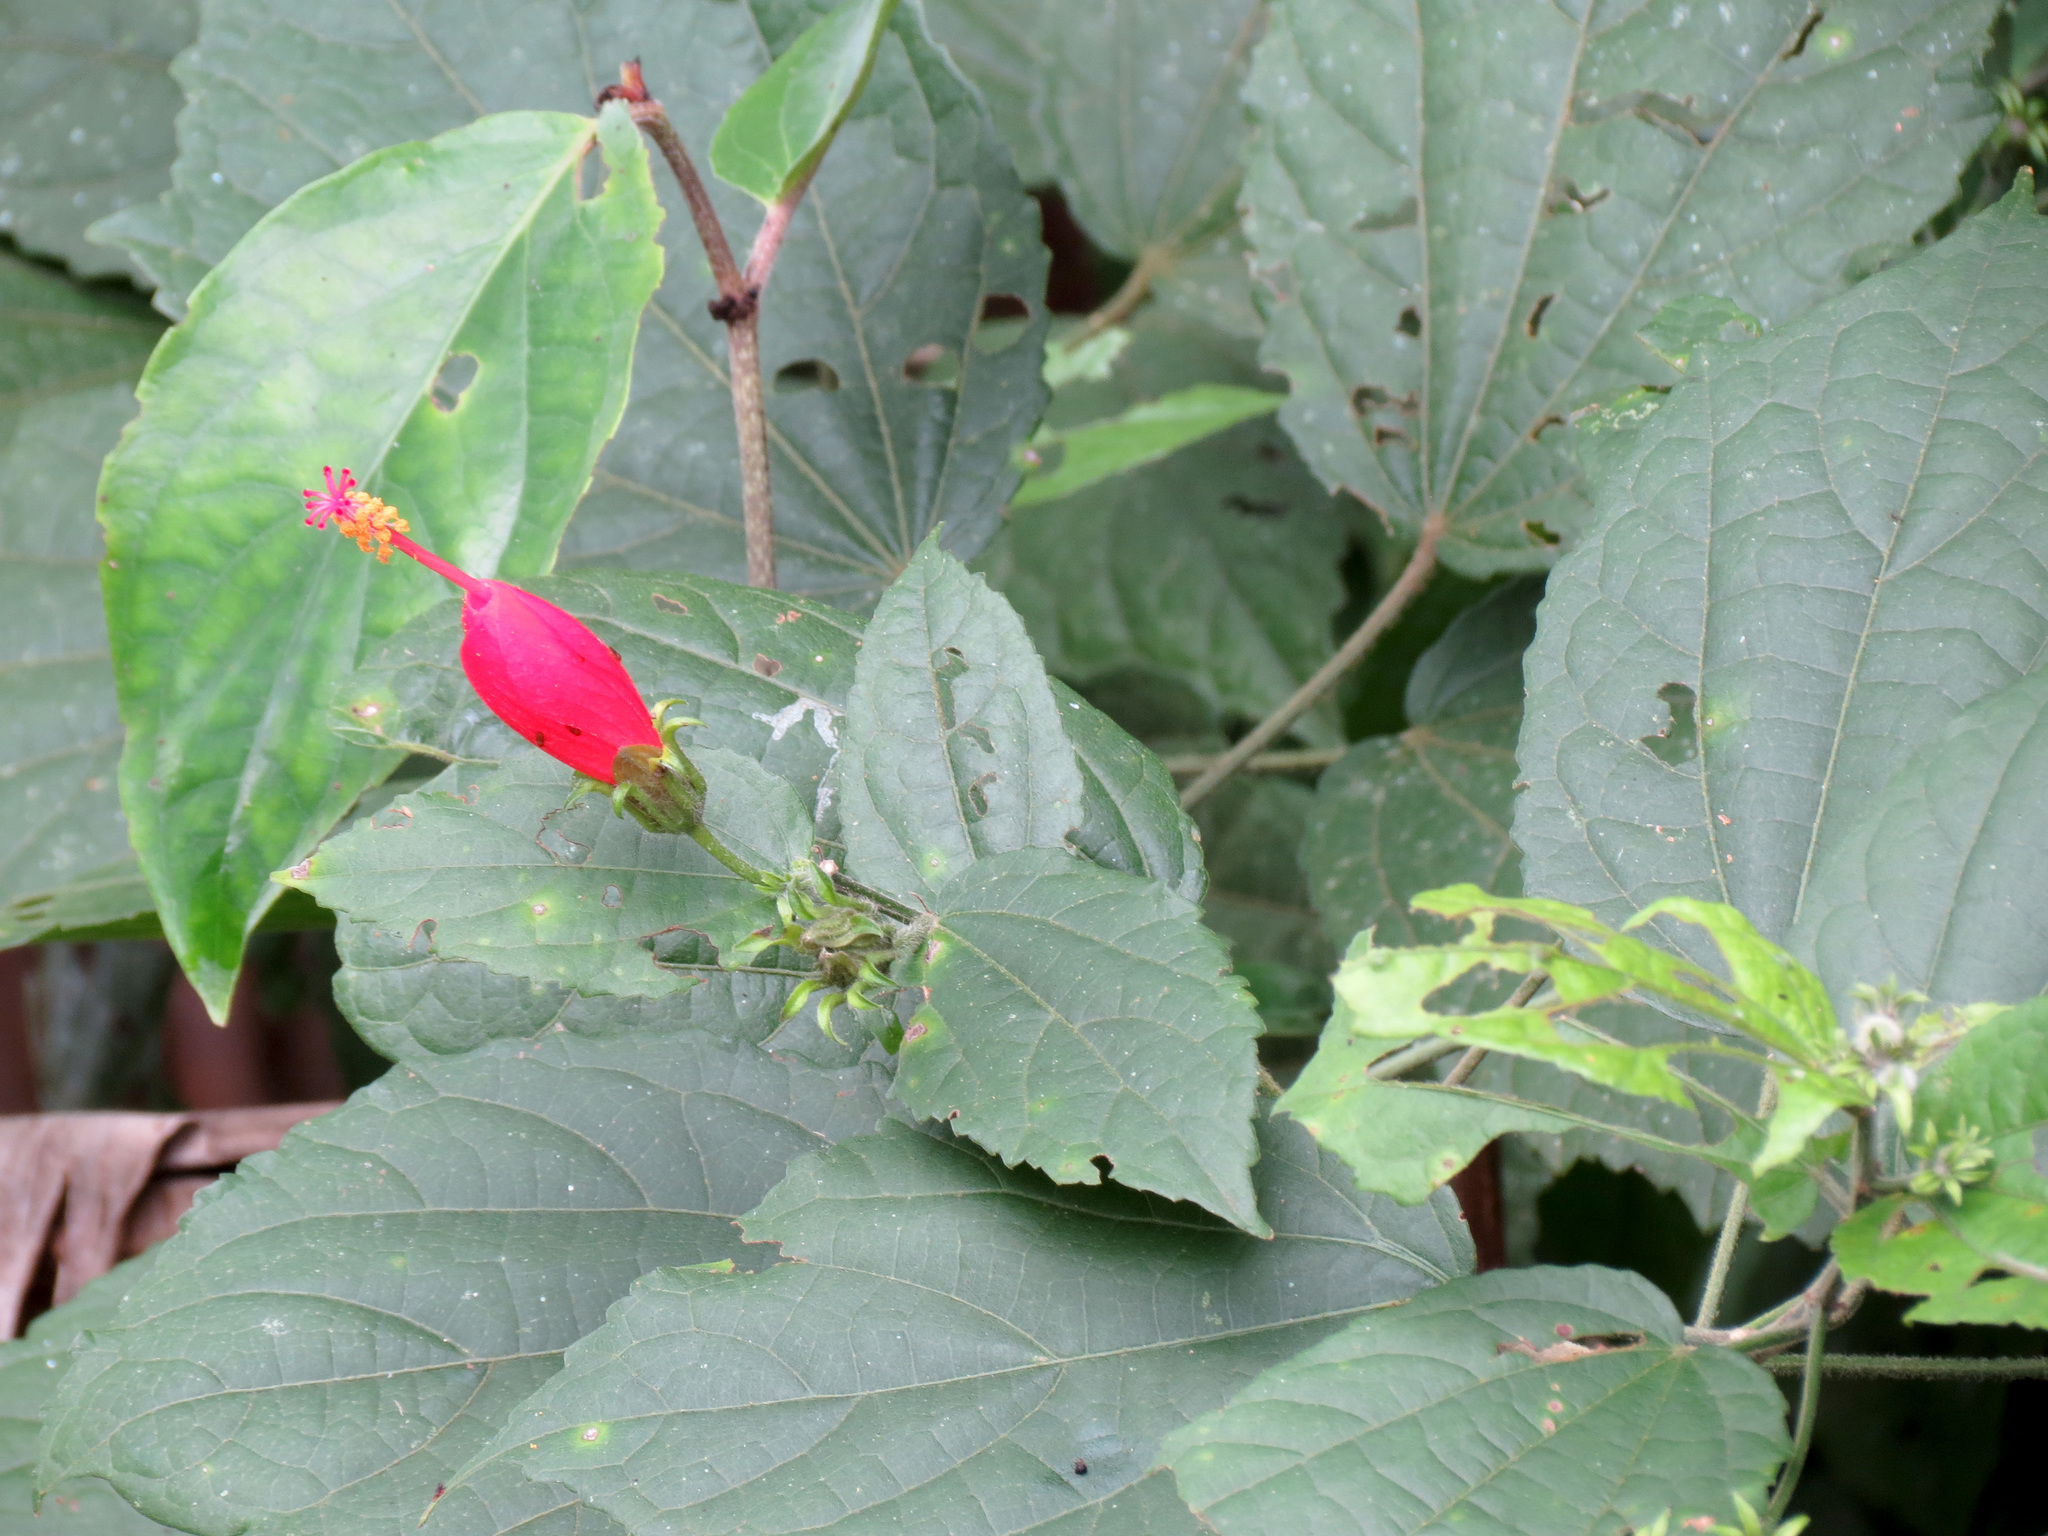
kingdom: Plantae
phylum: Tracheophyta
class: Magnoliopsida
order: Malvales
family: Malvaceae
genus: Malvaviscus
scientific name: Malvaviscus arboreus
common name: Wax mallow
